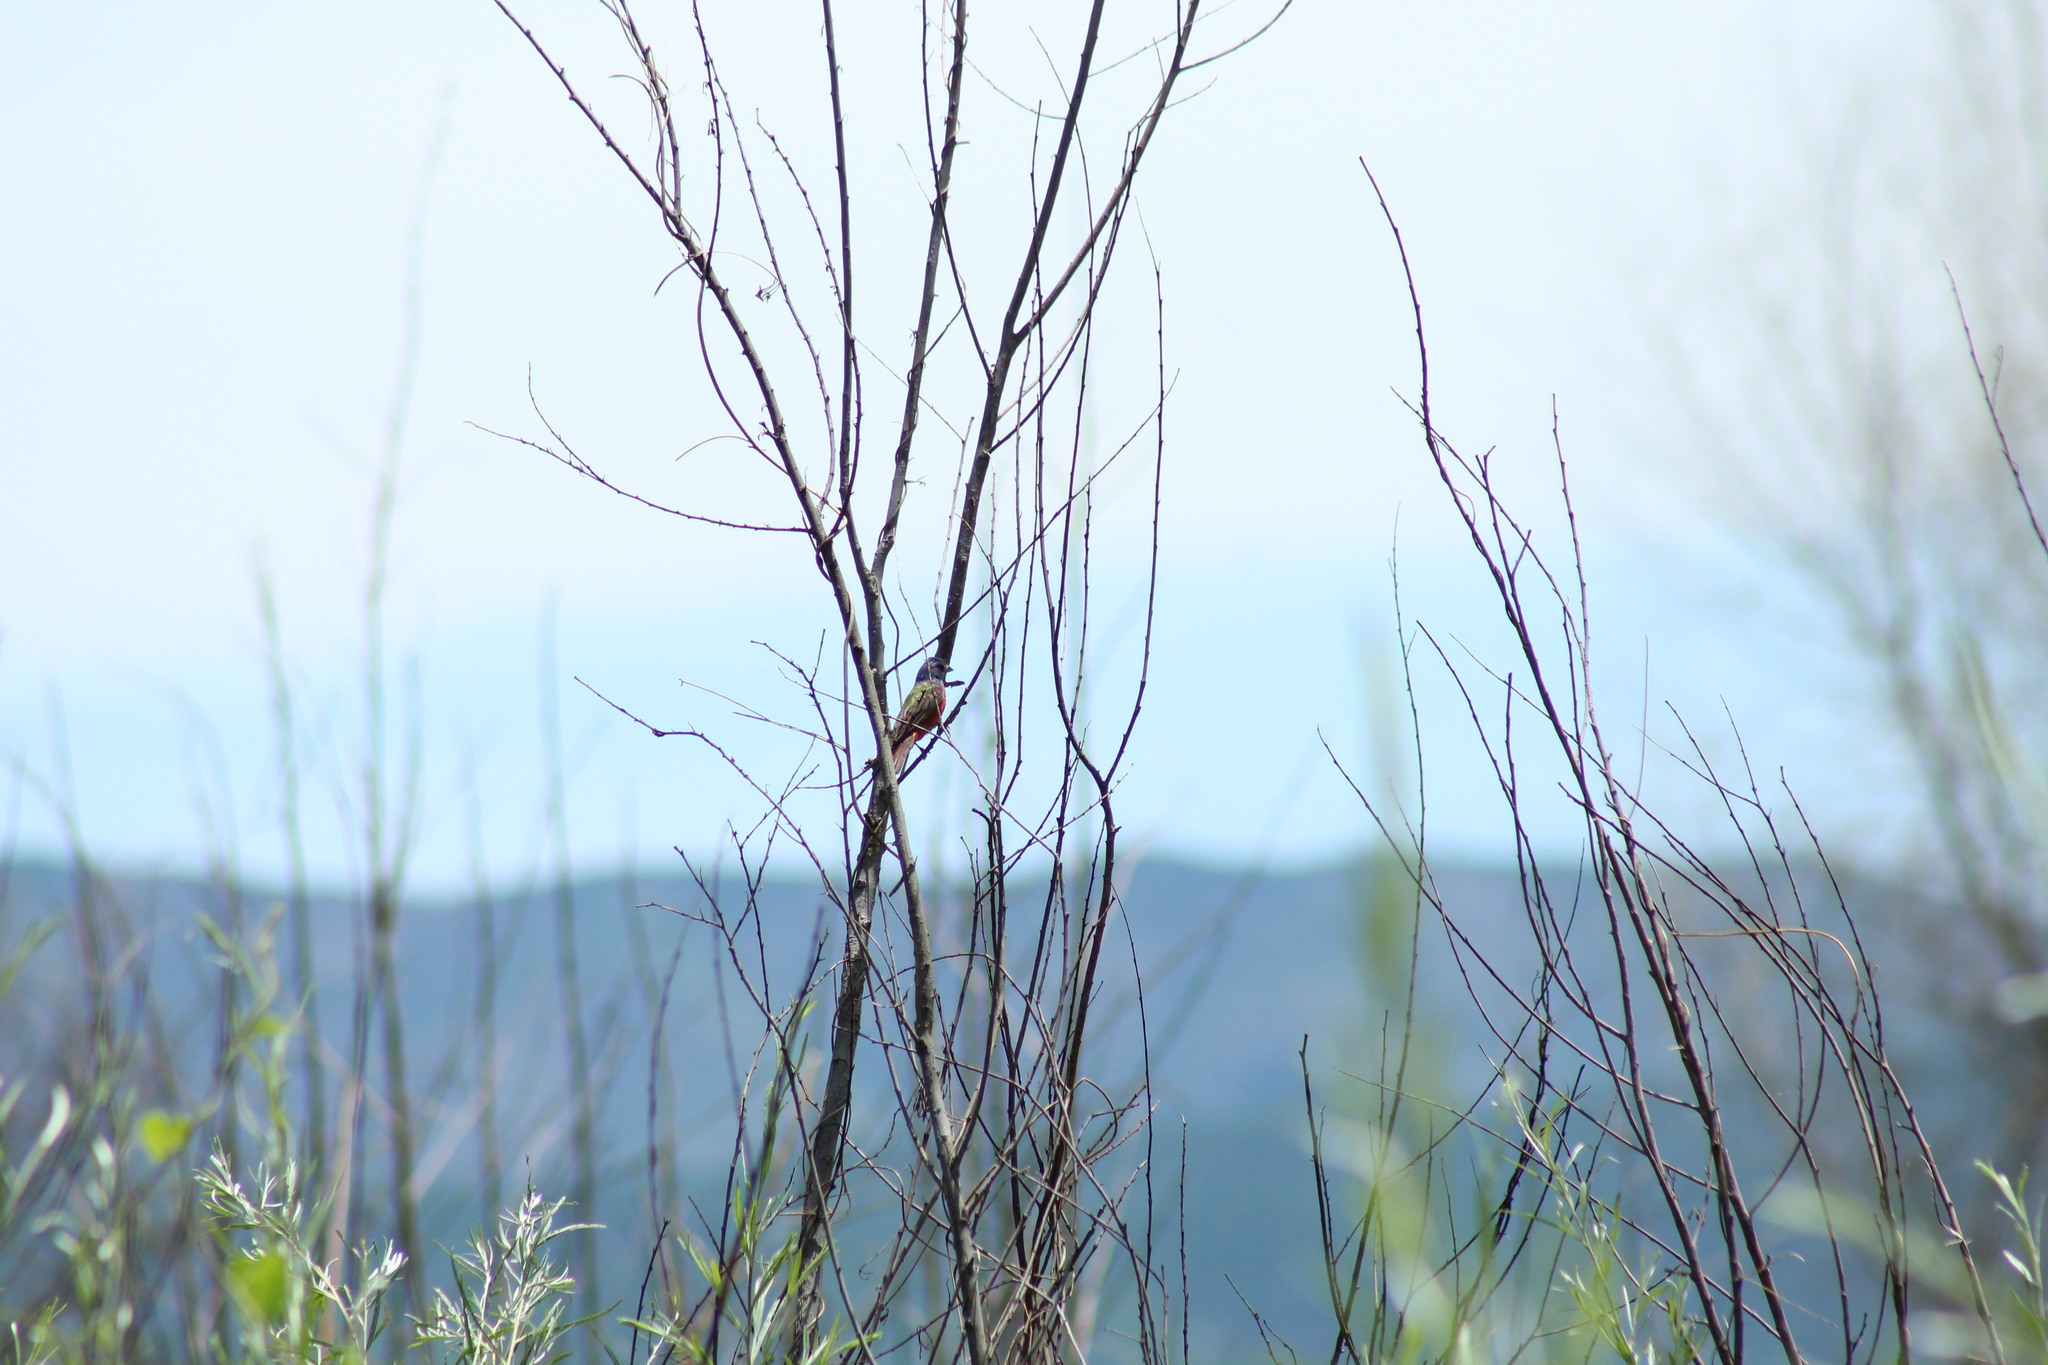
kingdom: Animalia
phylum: Chordata
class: Aves
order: Passeriformes
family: Cardinalidae
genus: Passerina
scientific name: Passerina ciris
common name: Painted bunting
